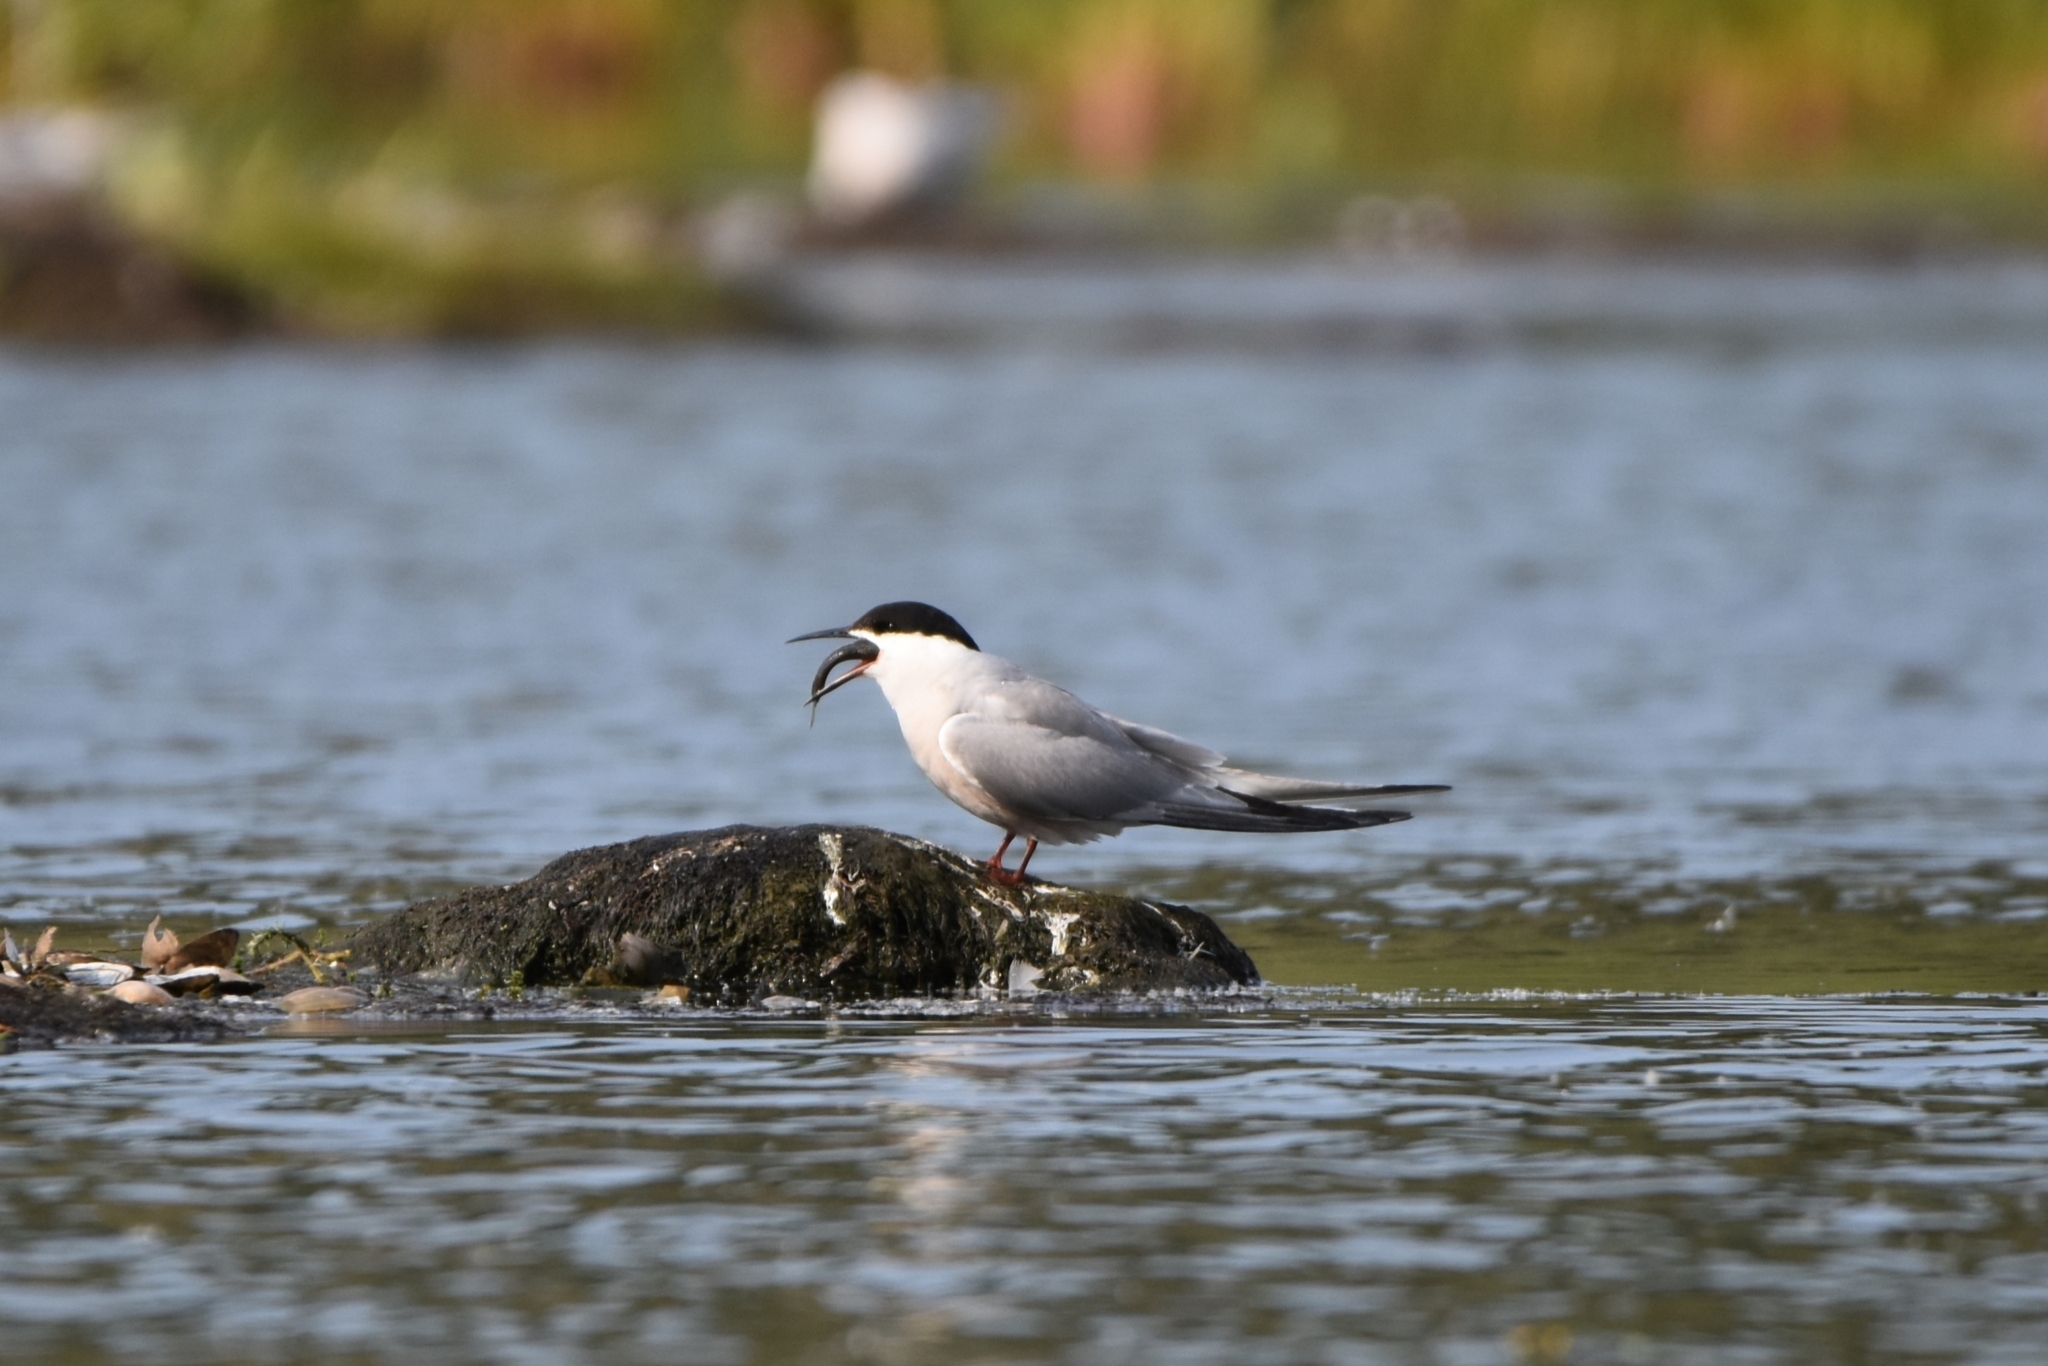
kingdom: Animalia
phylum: Chordata
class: Aves
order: Charadriiformes
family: Laridae
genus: Sterna
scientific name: Sterna hirundo
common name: Common tern
